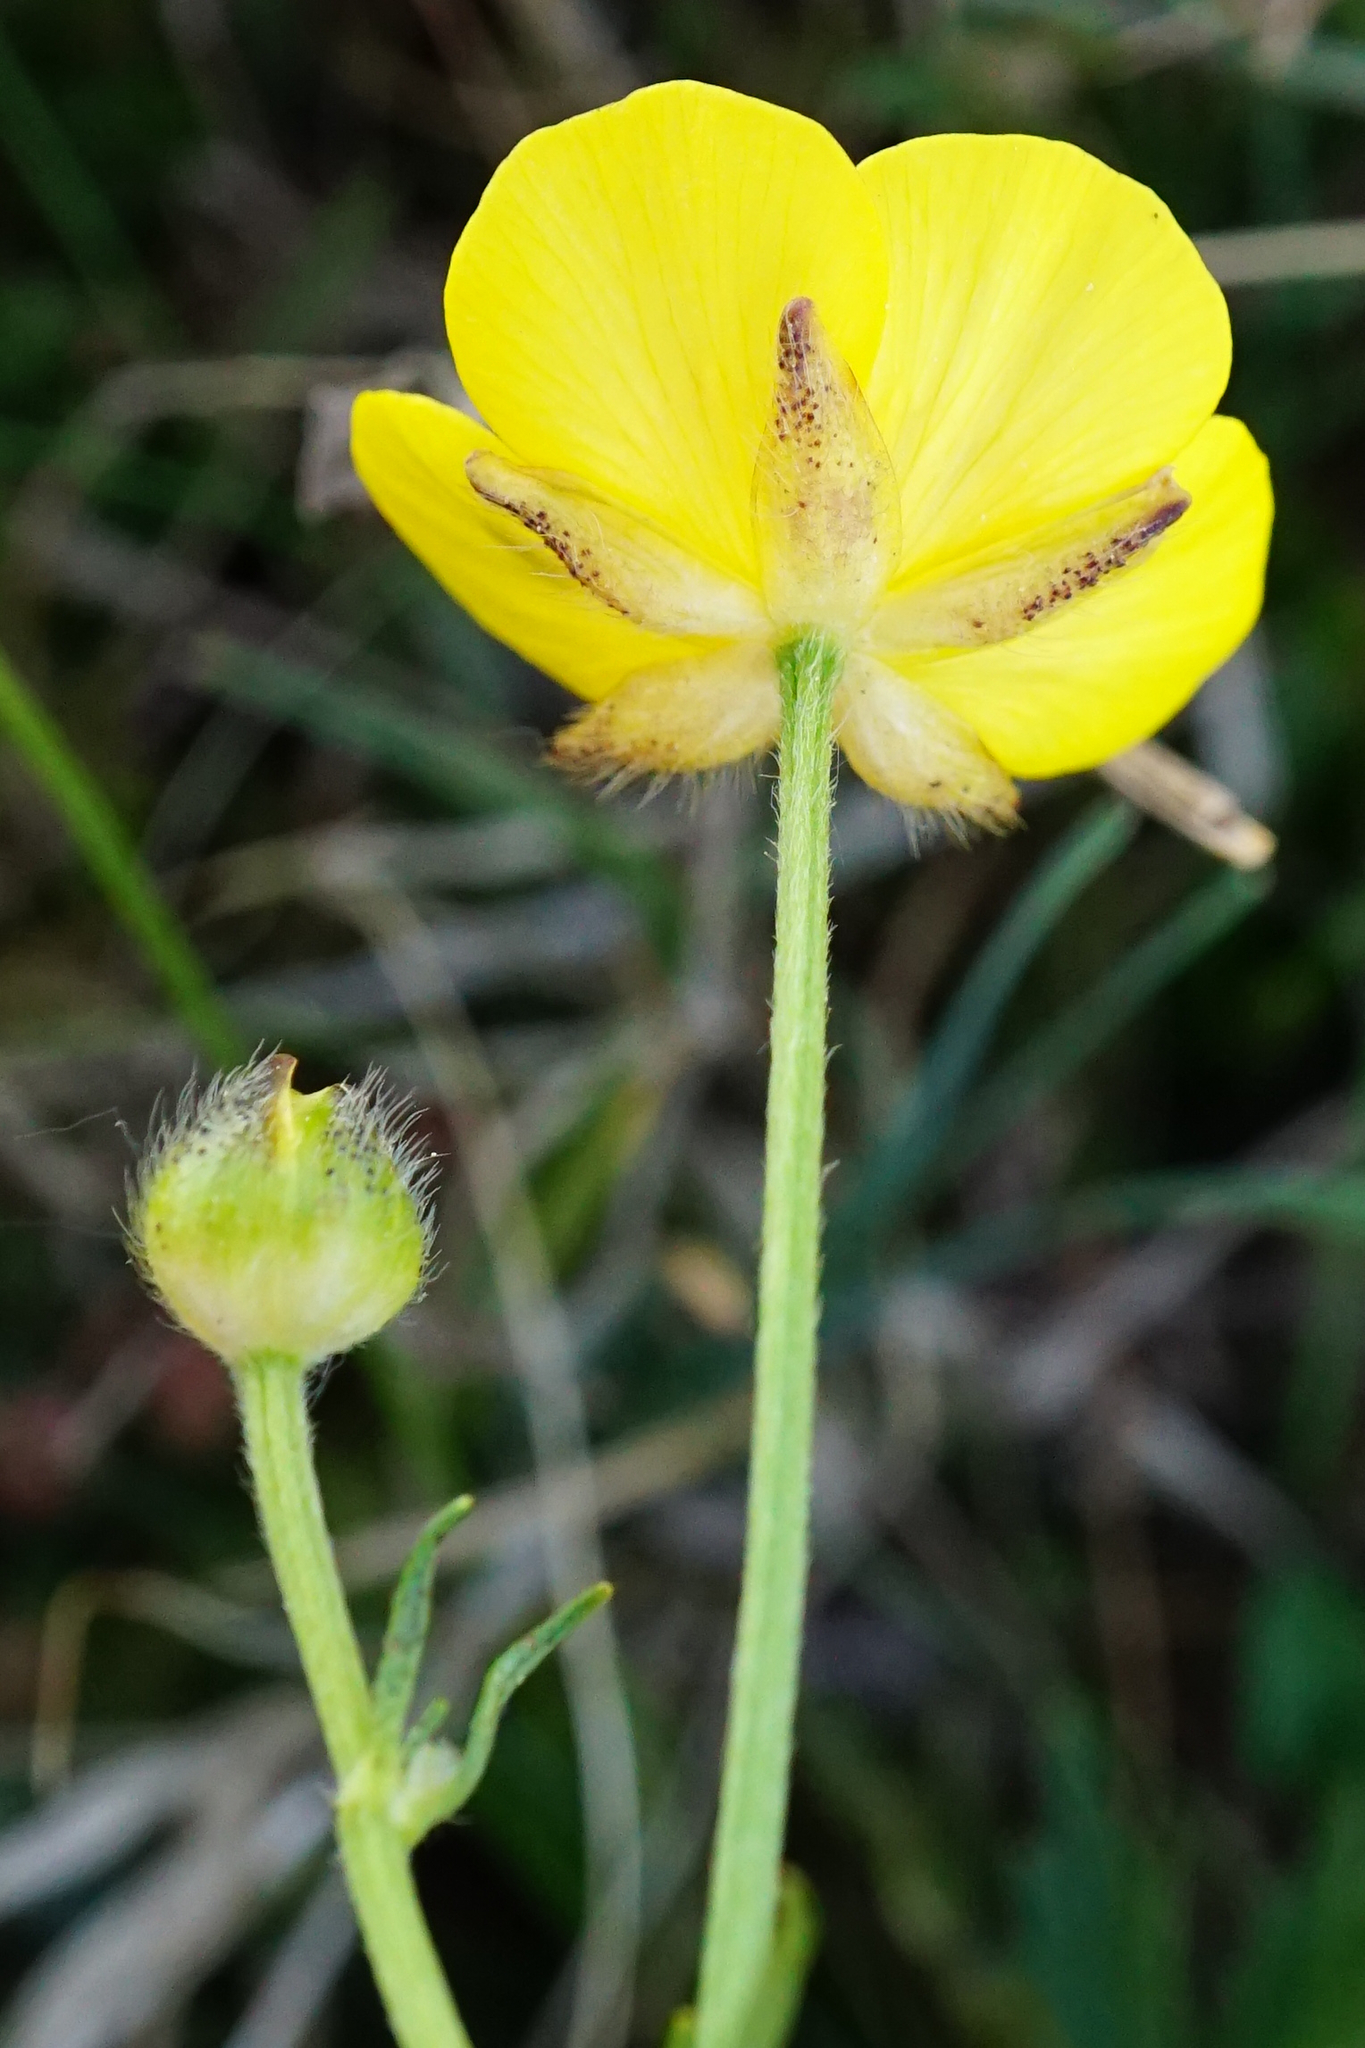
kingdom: Plantae
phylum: Tracheophyta
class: Magnoliopsida
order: Ranunculales
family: Ranunculaceae
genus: Ranunculus
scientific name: Ranunculus polyanthemos
